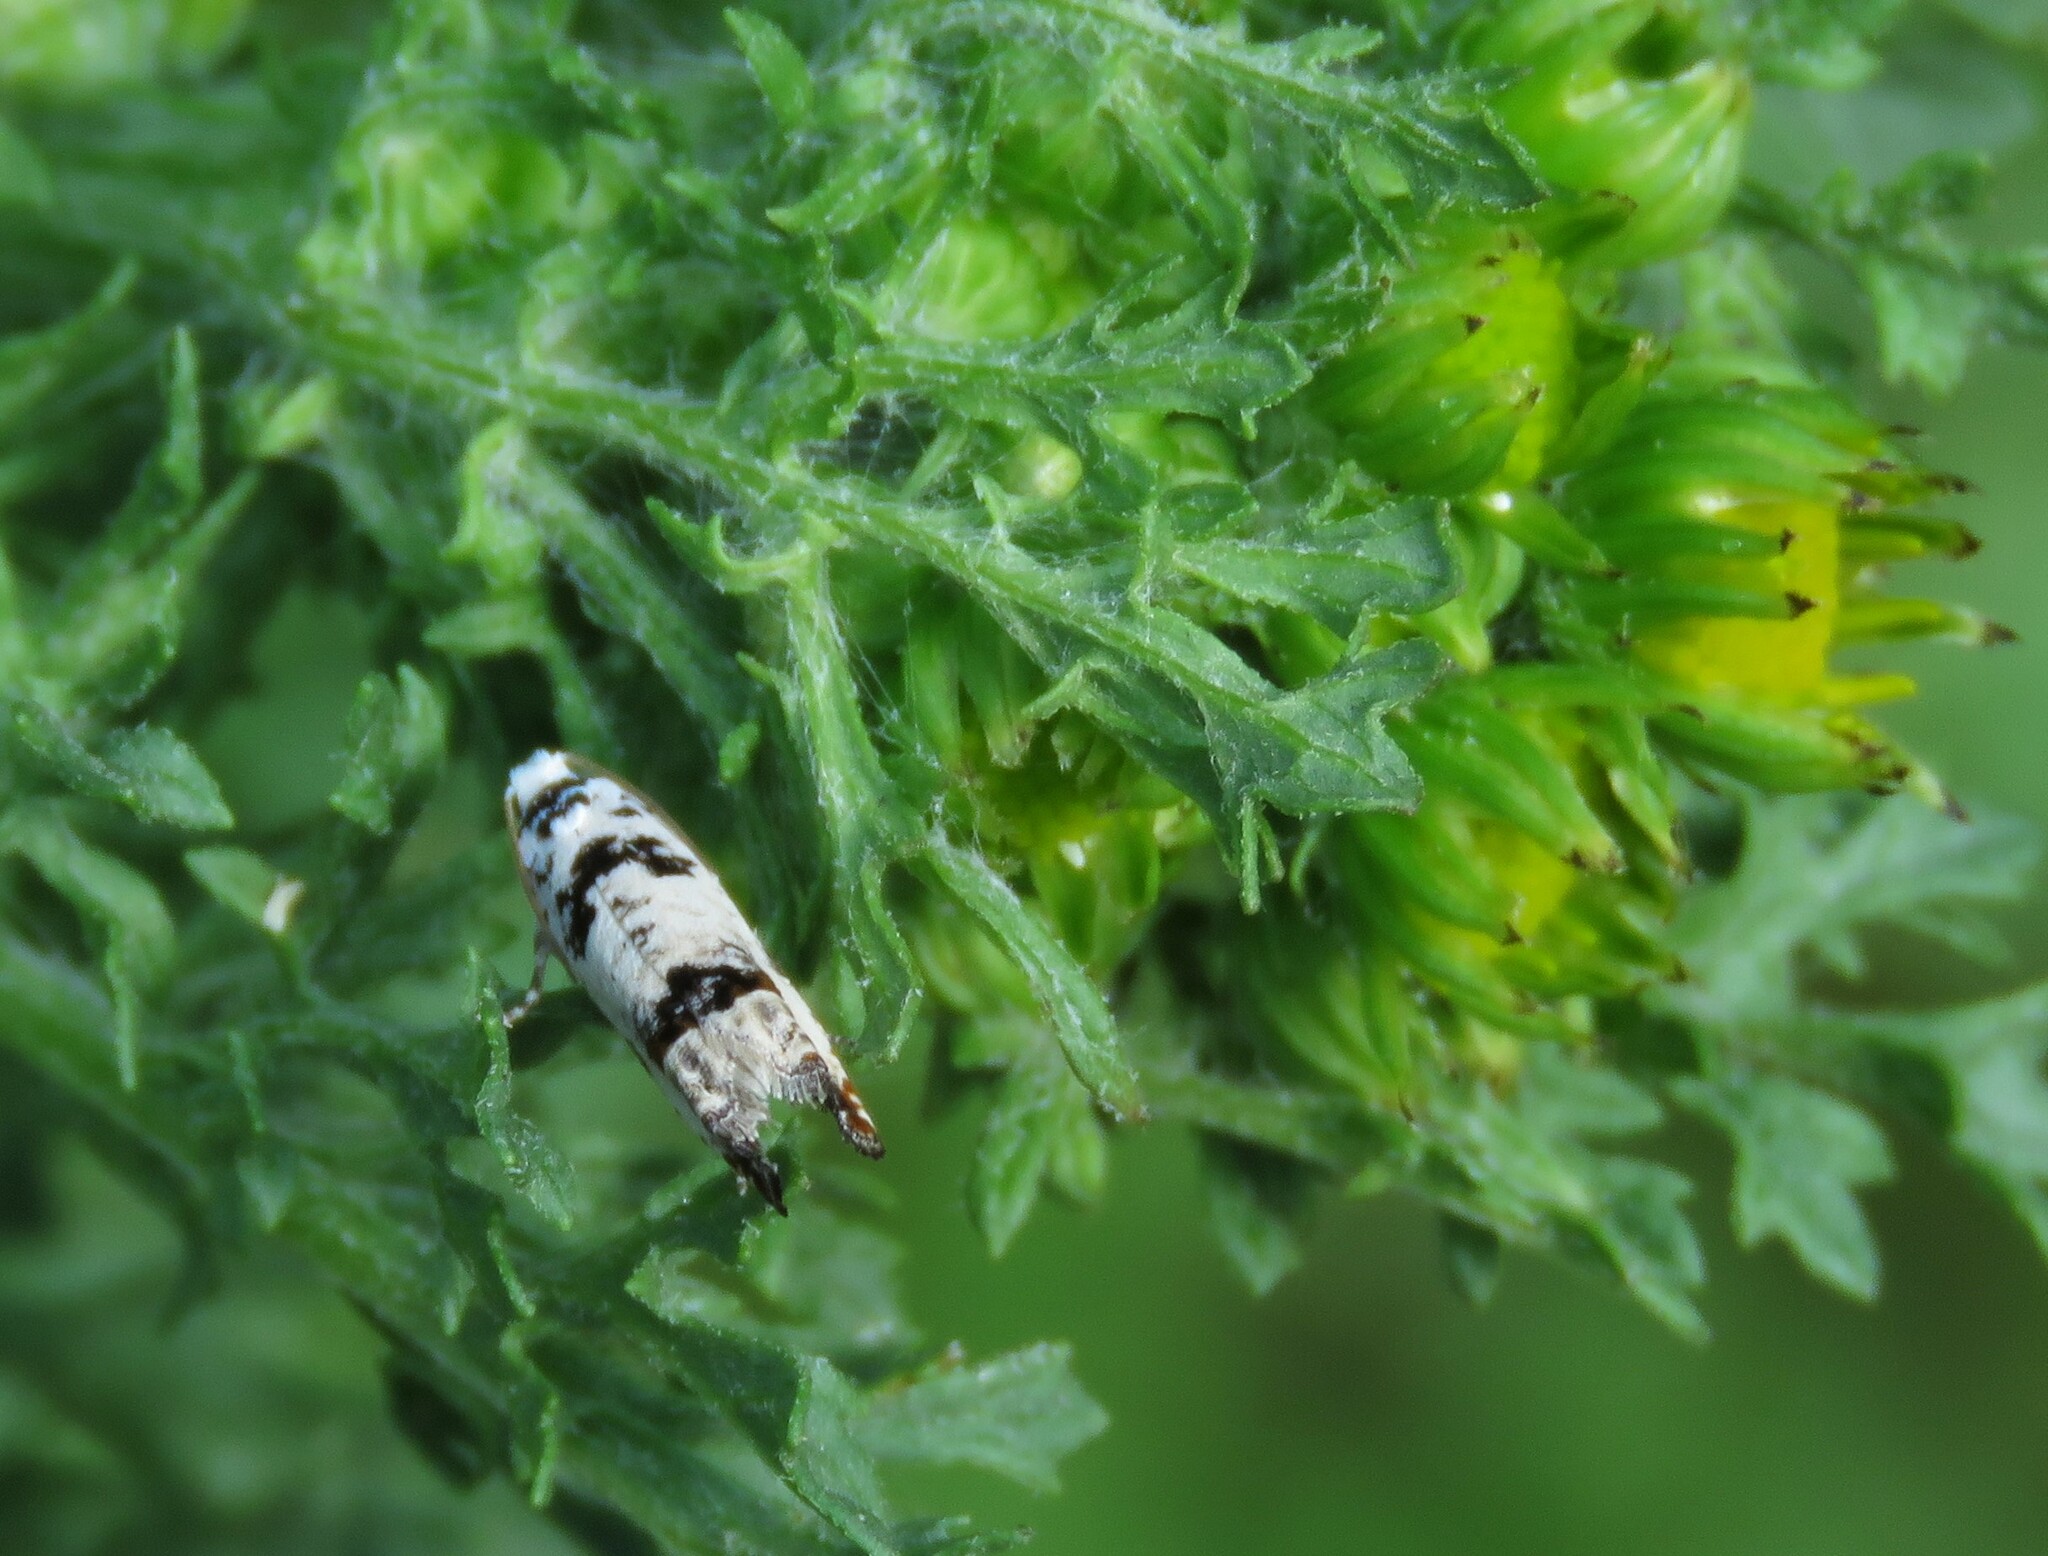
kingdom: Animalia
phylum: Arthropoda
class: Insecta
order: Lepidoptera
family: Tortricidae
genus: Eucosma
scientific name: Eucosma campoliliana
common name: Marbled bell
